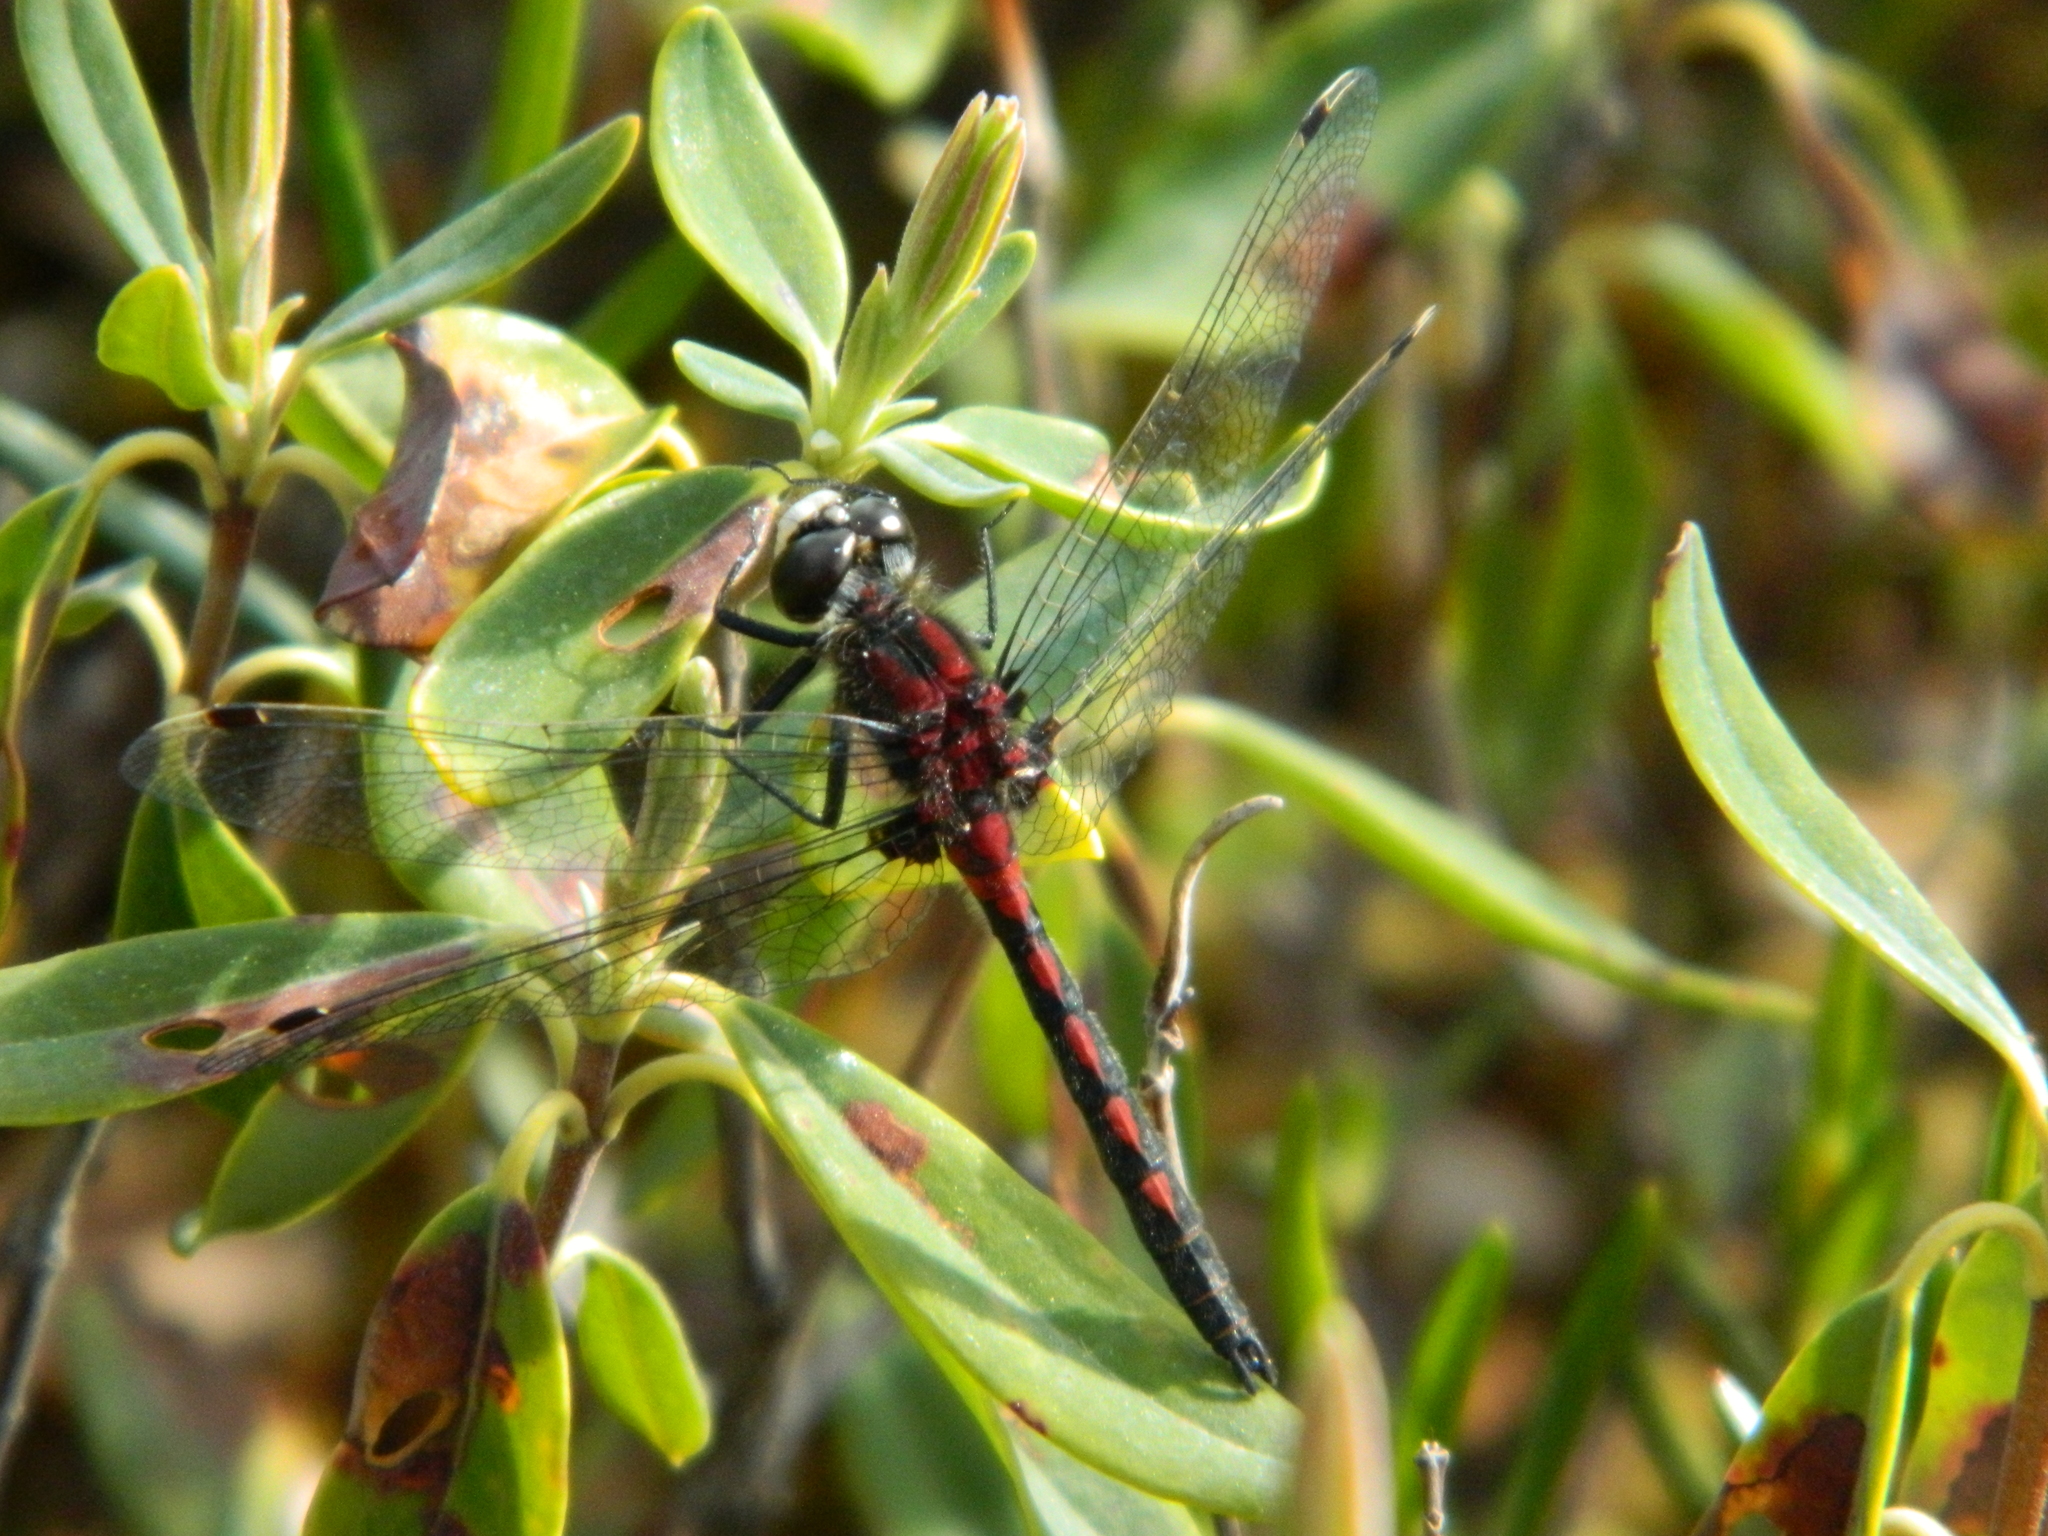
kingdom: Animalia
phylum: Arthropoda
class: Insecta
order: Odonata
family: Libellulidae
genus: Leucorrhinia
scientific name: Leucorrhinia hudsonica
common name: Hudsonian whiteface
